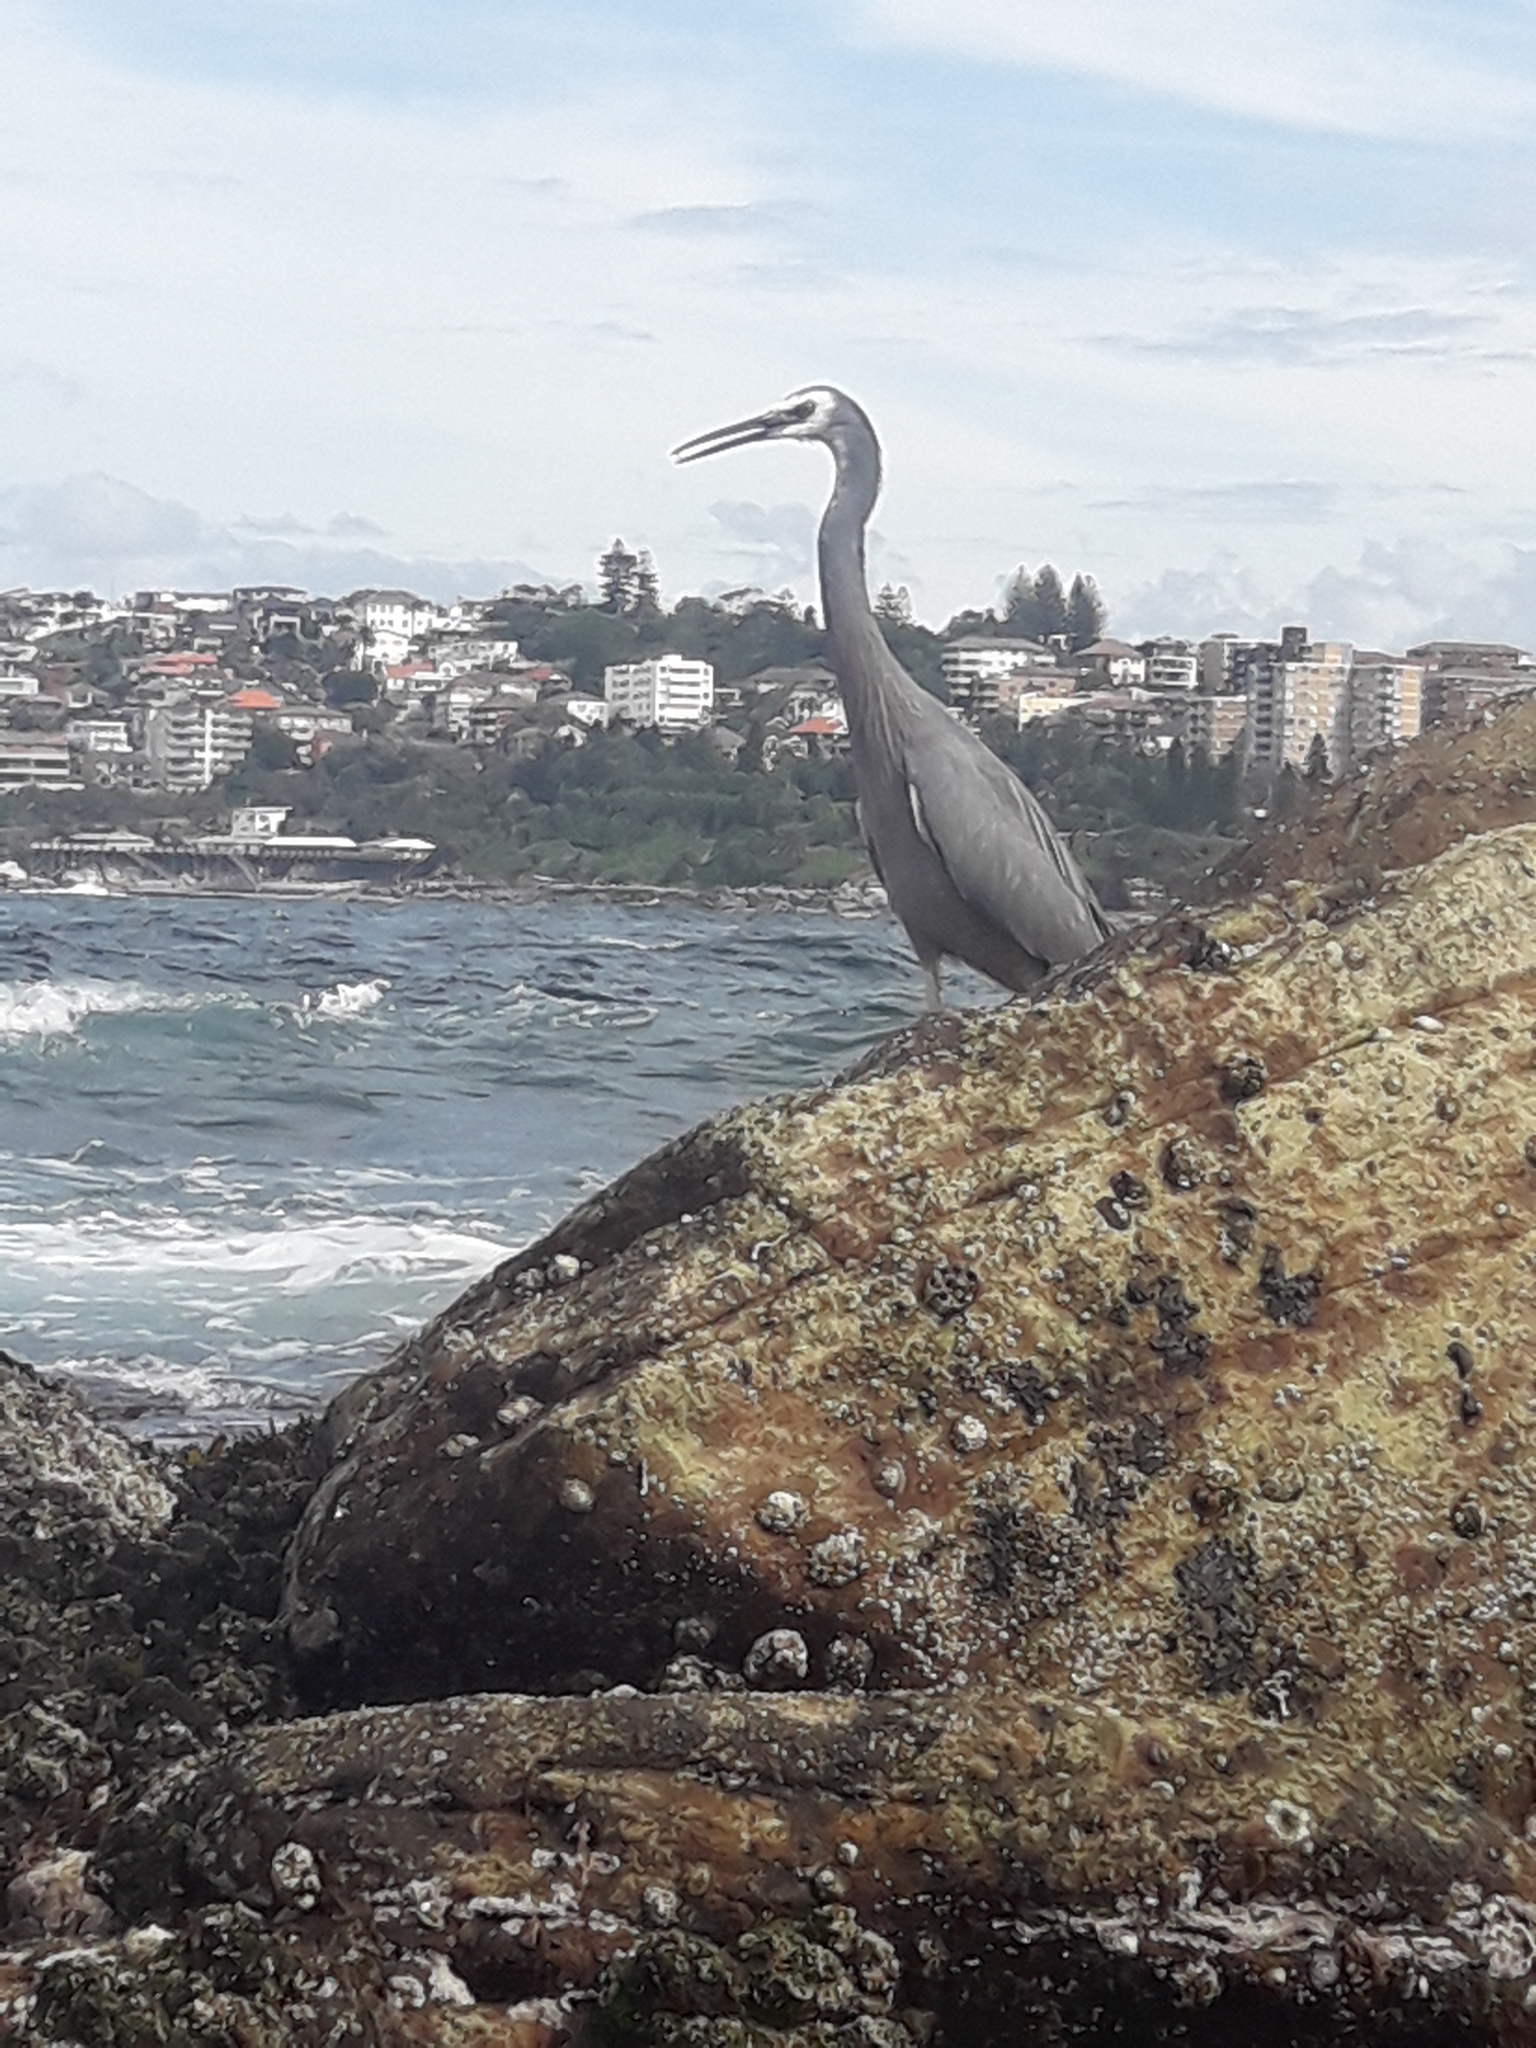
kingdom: Animalia
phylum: Chordata
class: Aves
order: Pelecaniformes
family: Ardeidae
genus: Egretta
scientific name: Egretta novaehollandiae
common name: White-faced heron
